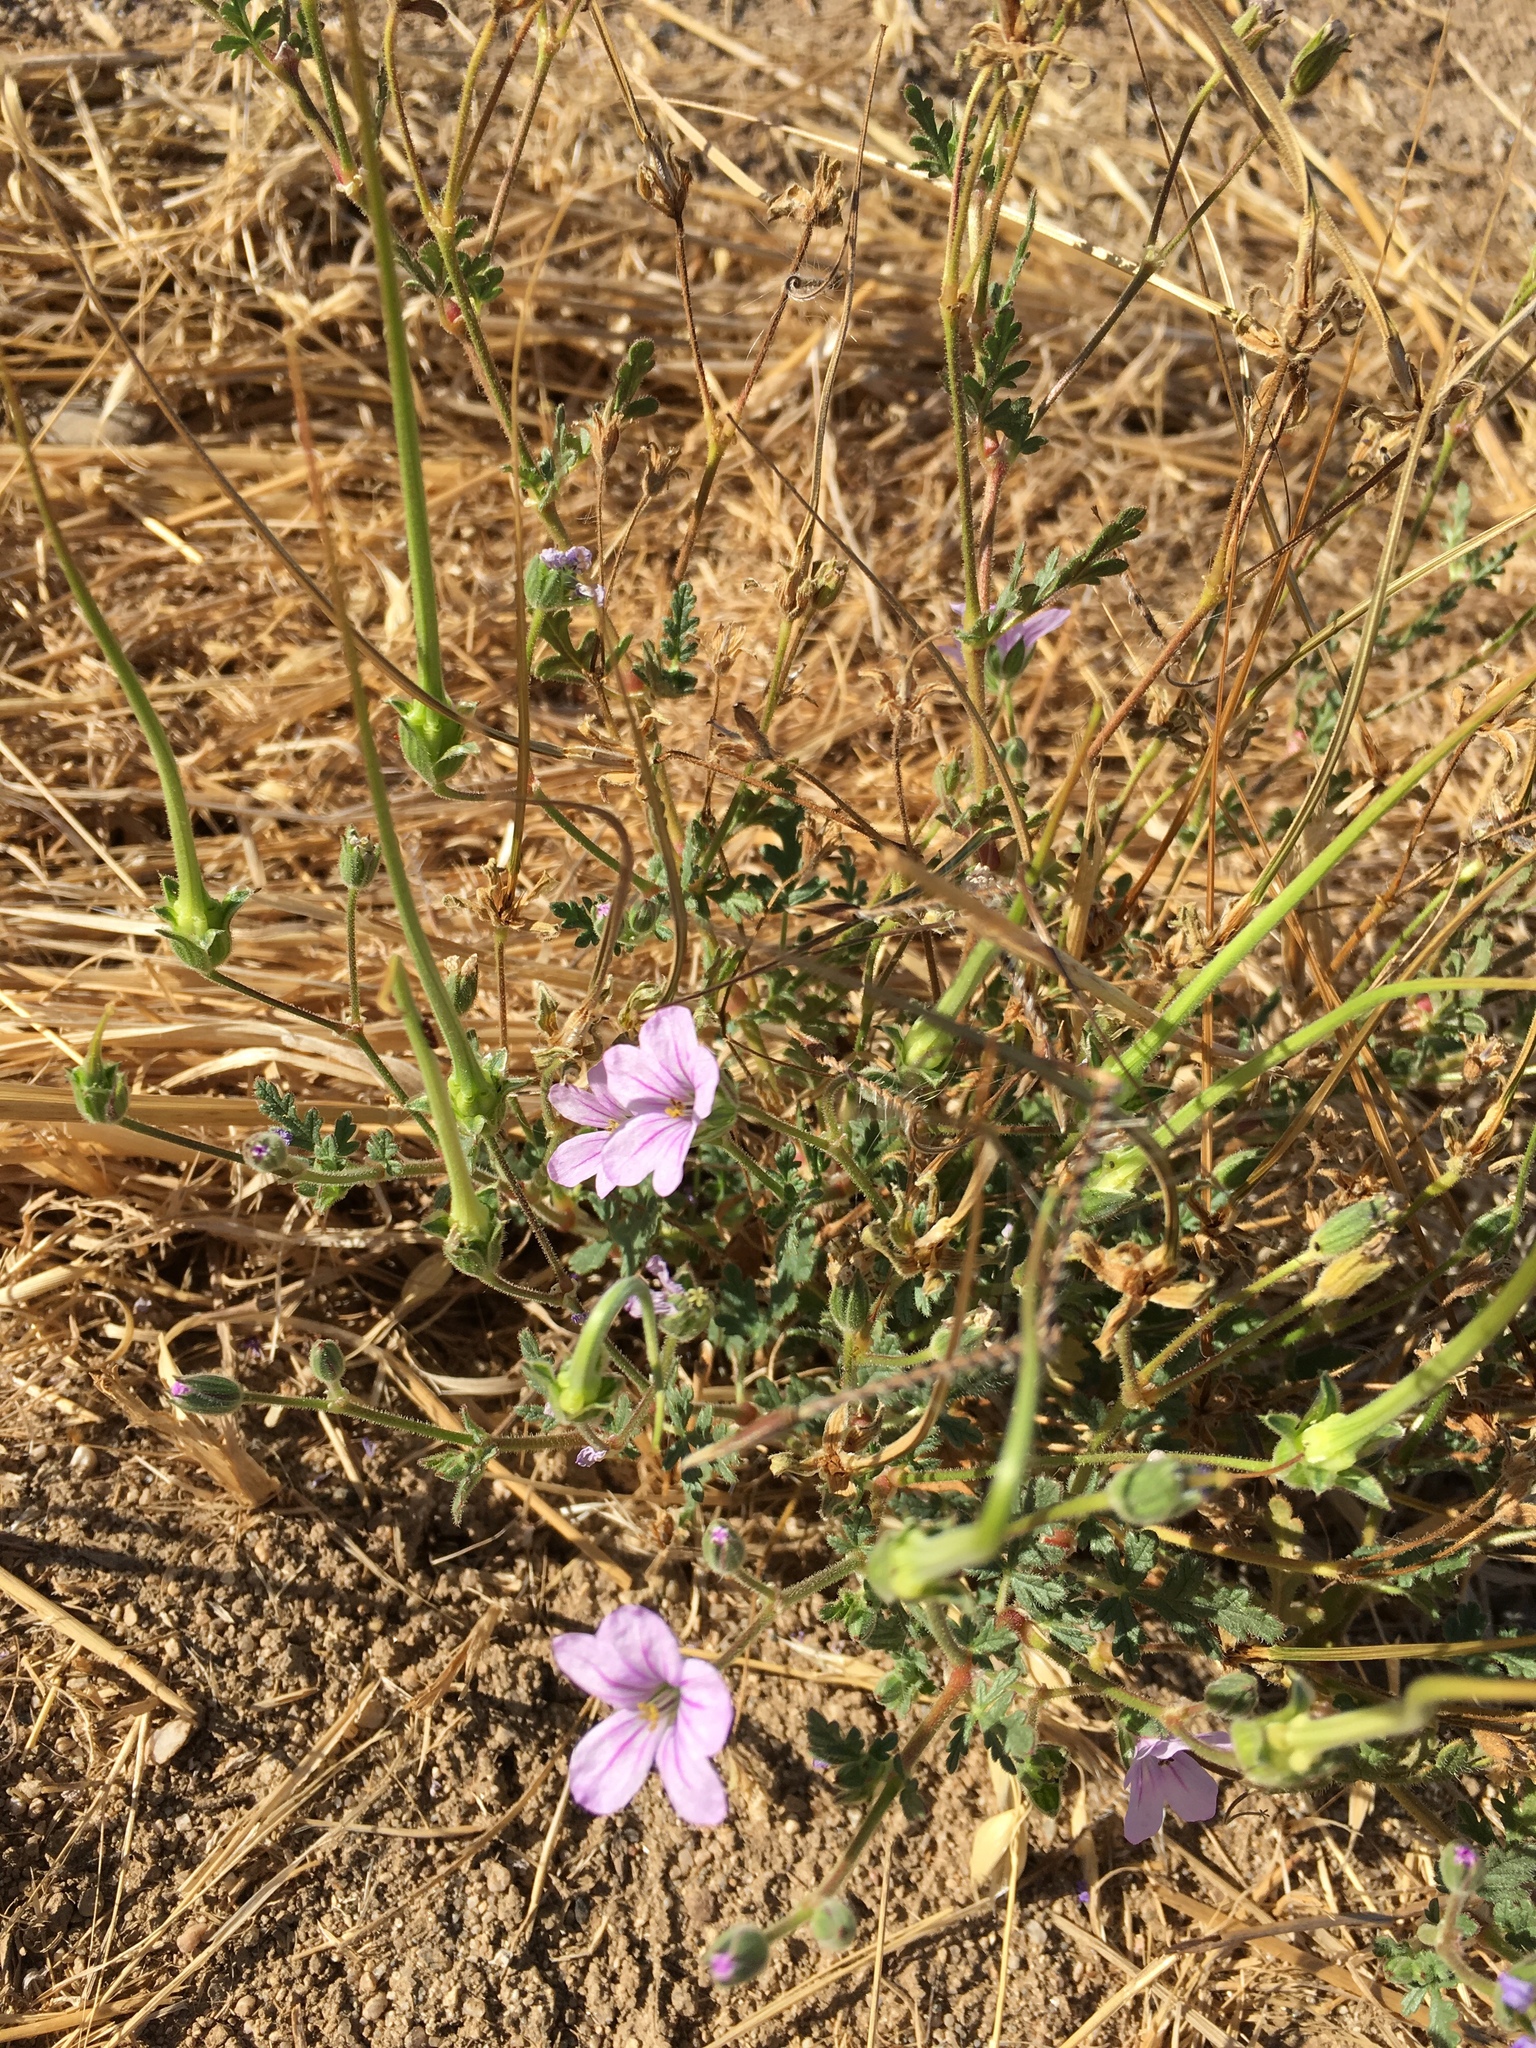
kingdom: Plantae
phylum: Tracheophyta
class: Magnoliopsida
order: Geraniales
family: Geraniaceae
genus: Erodium
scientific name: Erodium botrys
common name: Mediterranean stork's-bill
